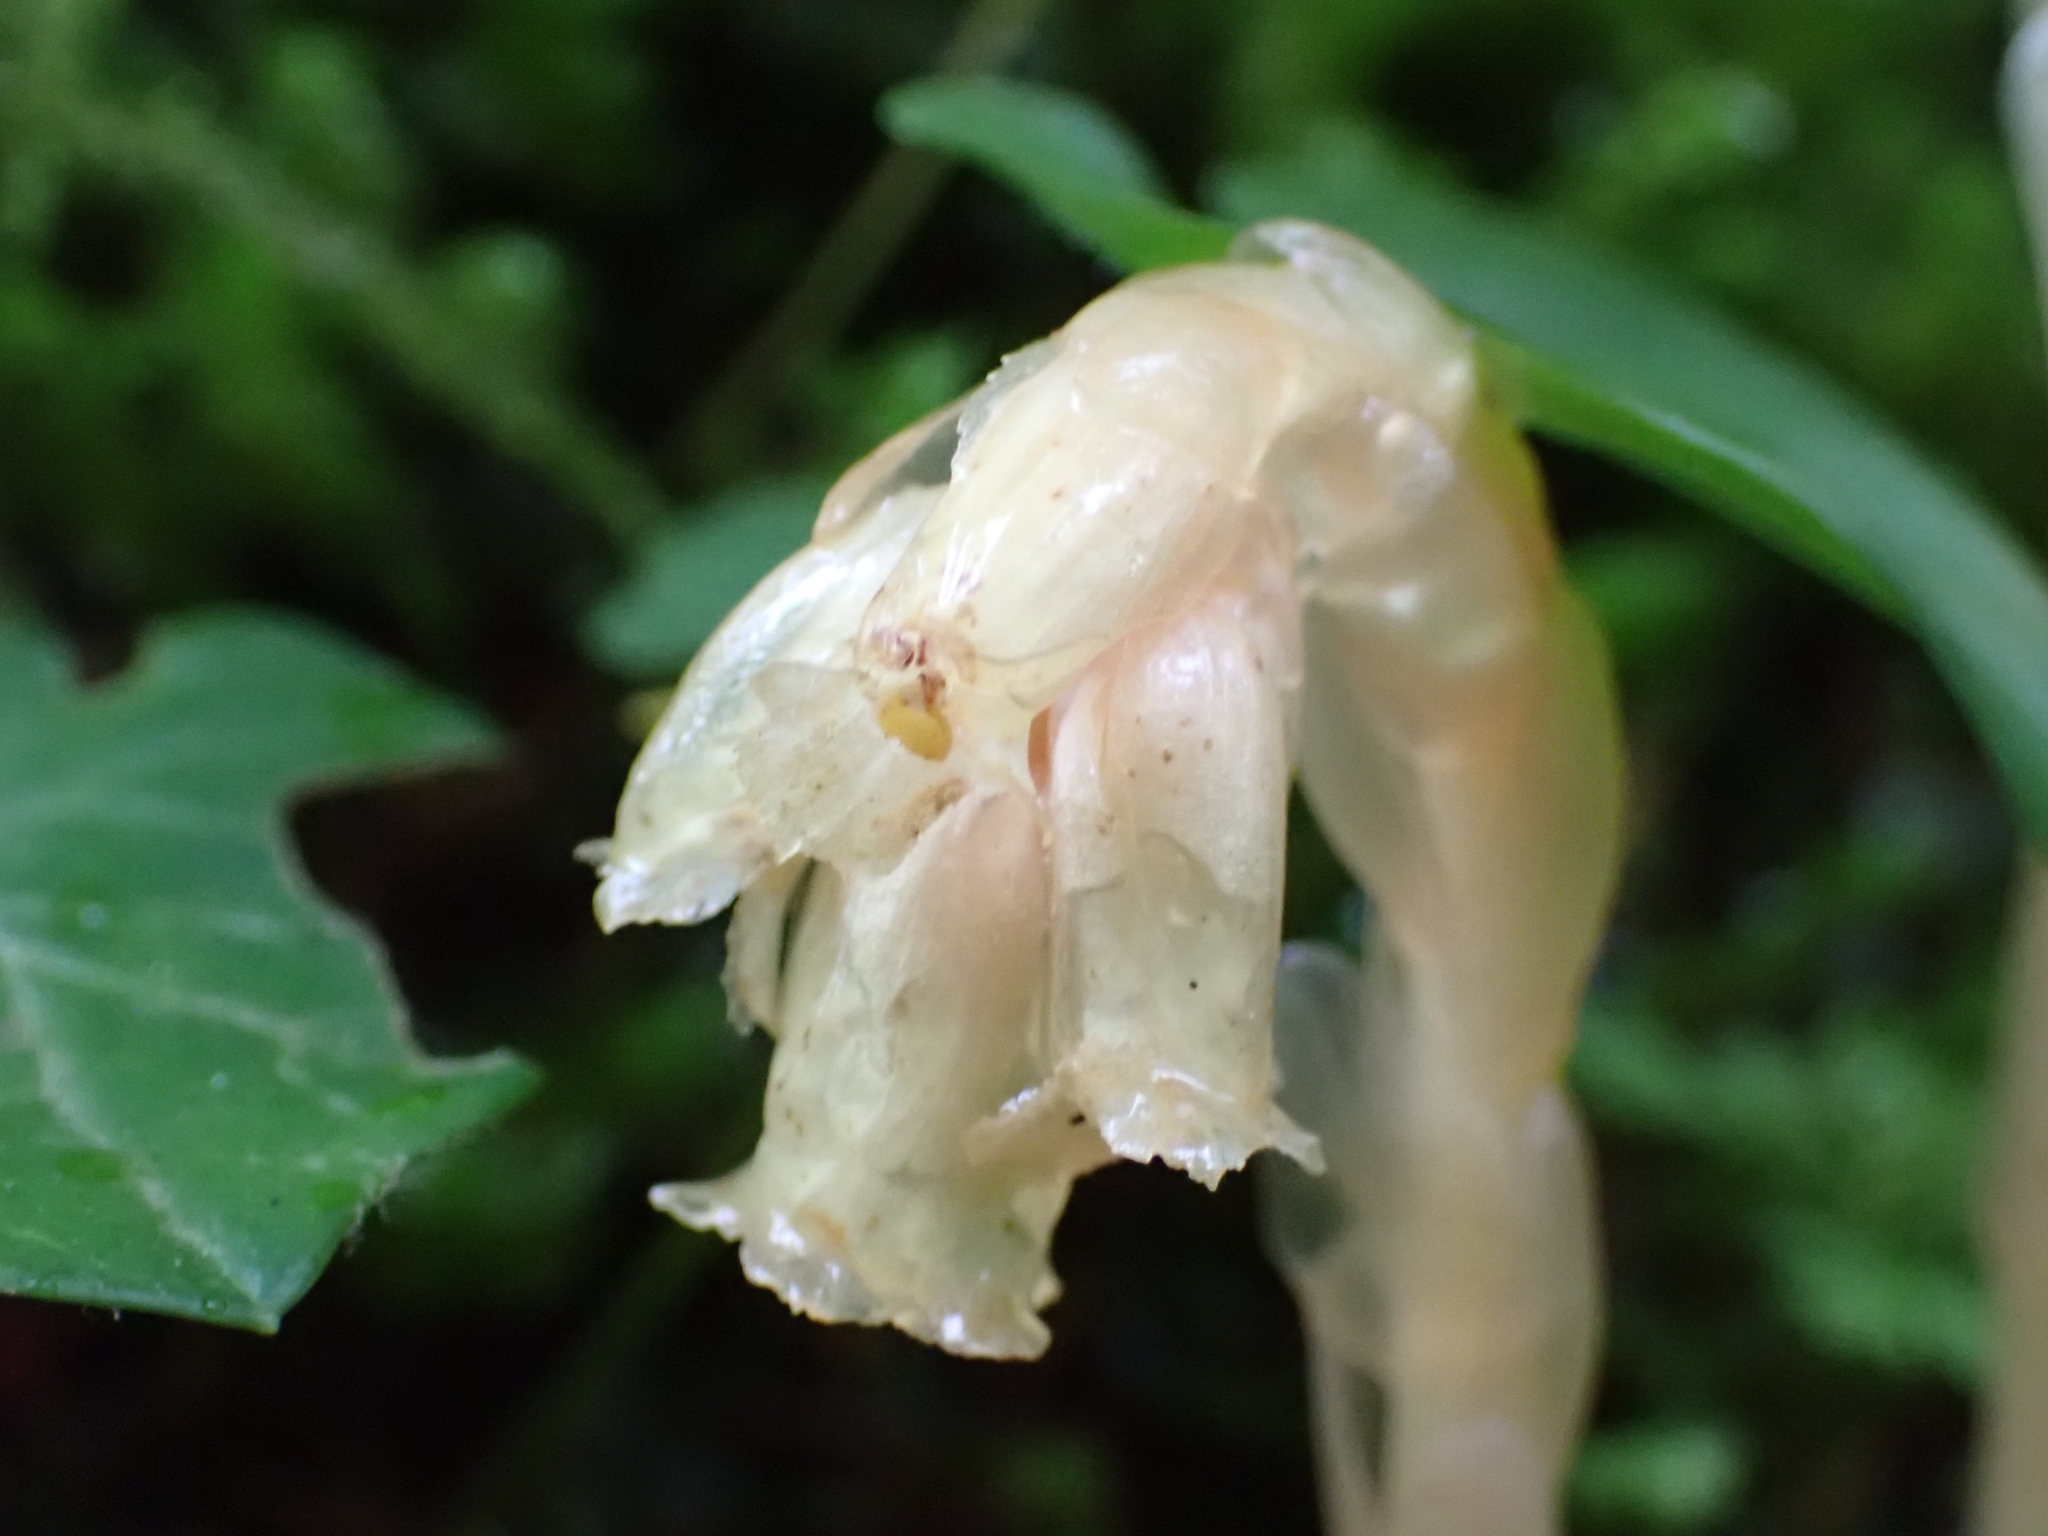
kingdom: Plantae
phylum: Tracheophyta
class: Magnoliopsida
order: Ericales
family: Ericaceae
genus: Hypopitys
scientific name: Hypopitys monotropa
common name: Yellow bird's-nest
